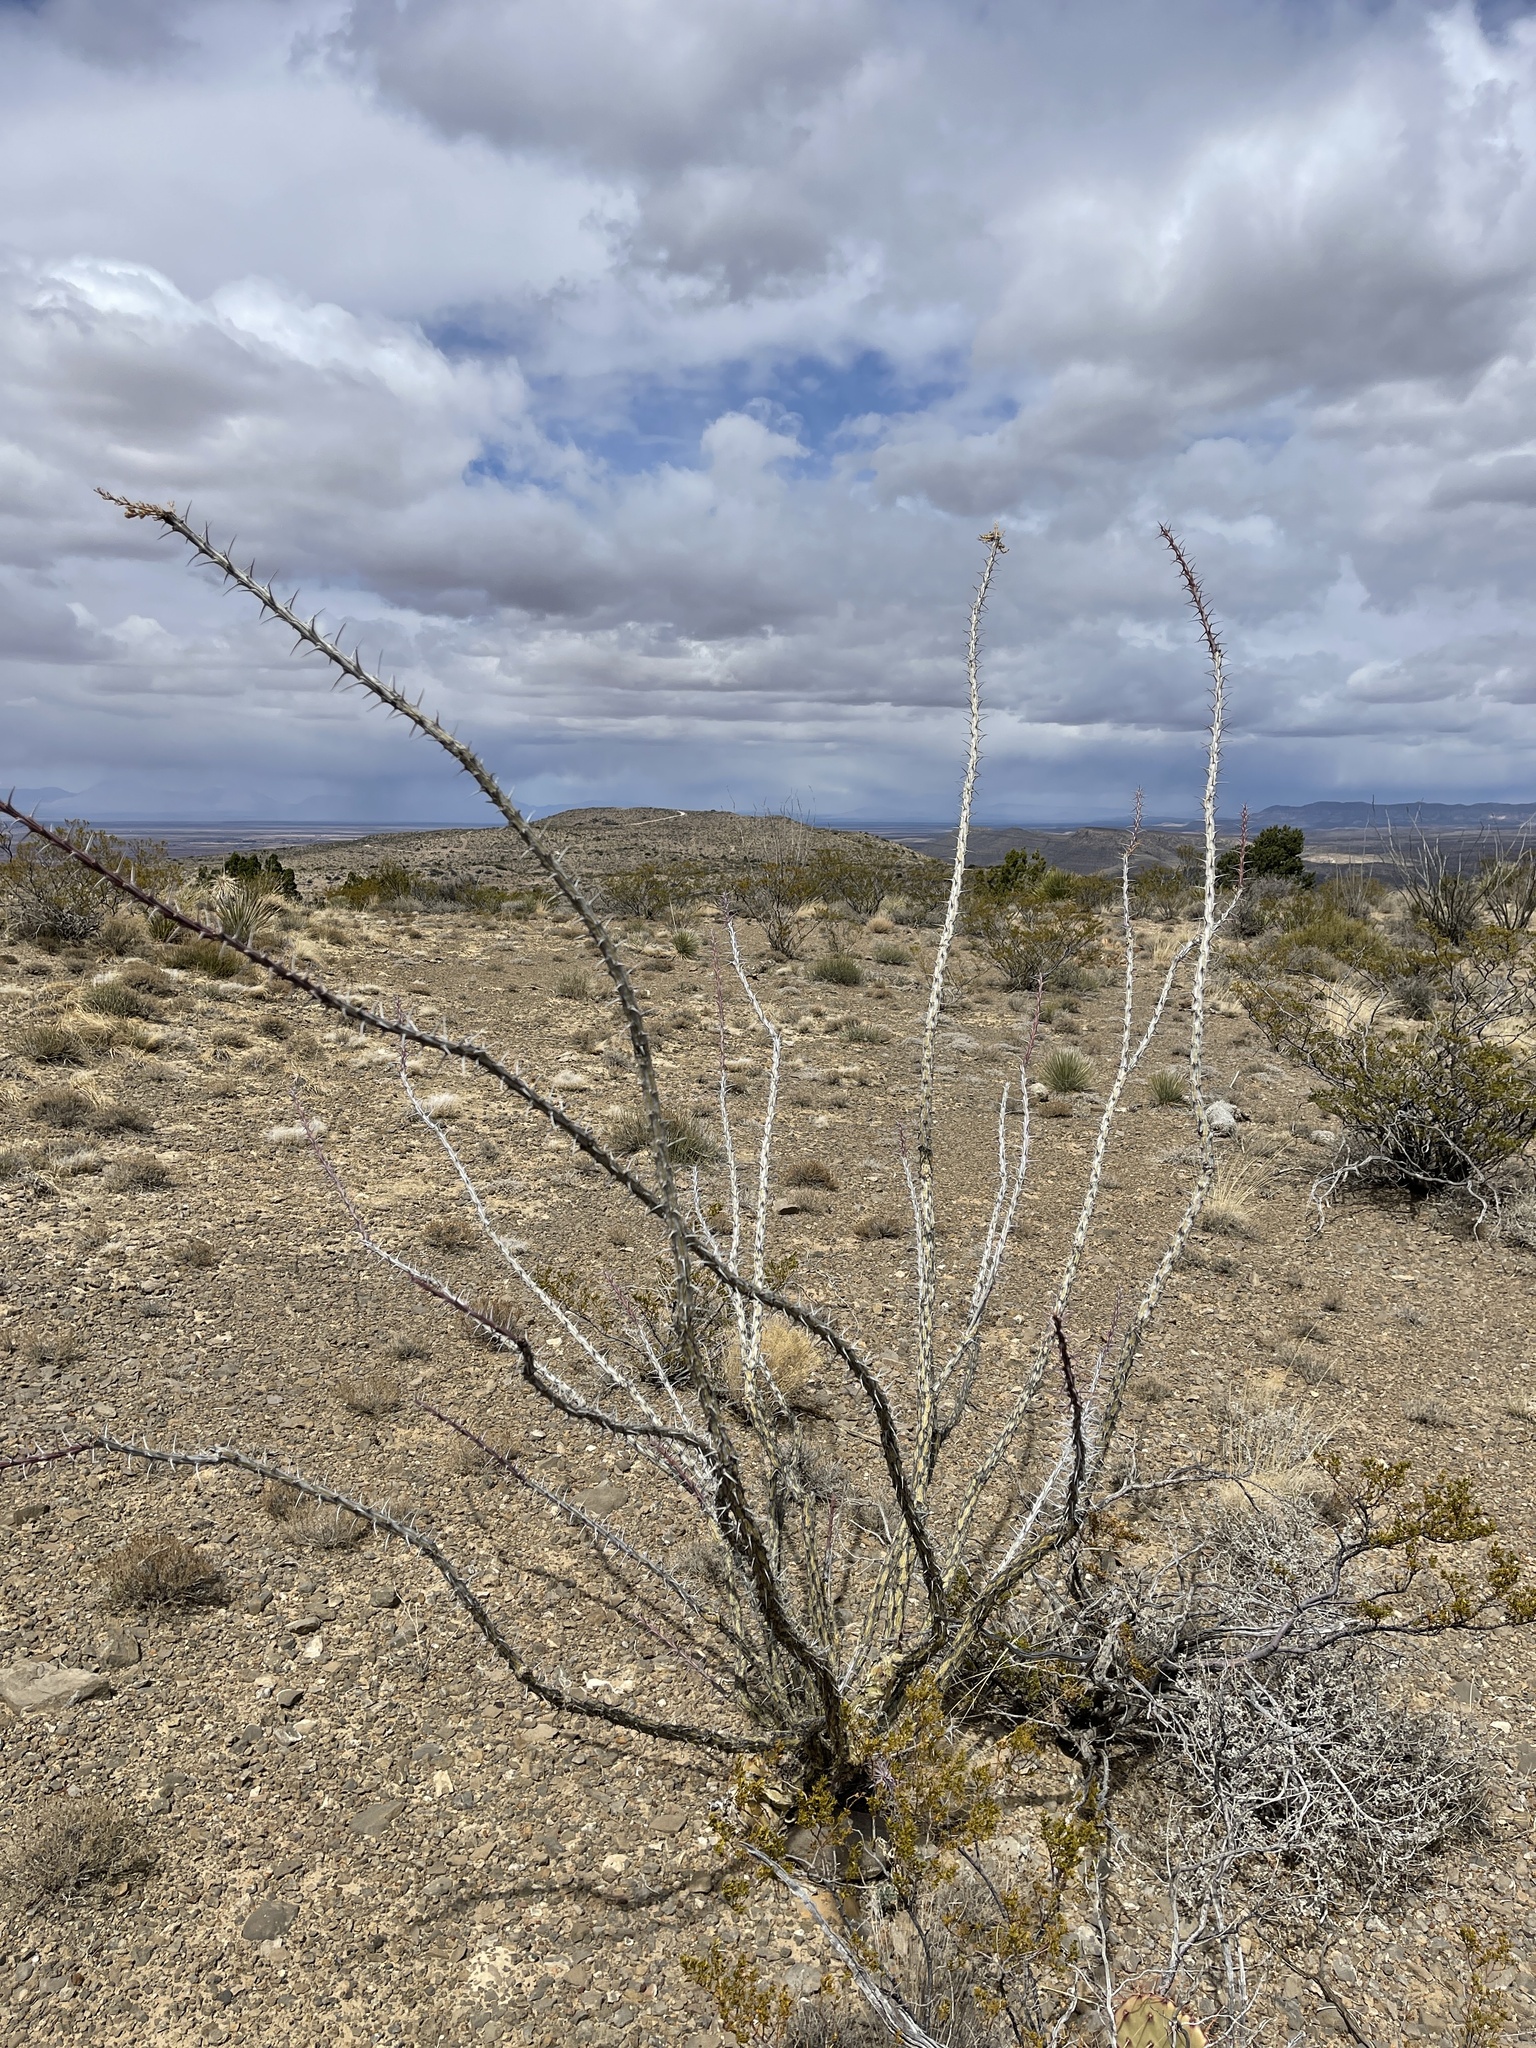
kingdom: Plantae
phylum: Tracheophyta
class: Magnoliopsida
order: Ericales
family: Fouquieriaceae
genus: Fouquieria
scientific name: Fouquieria splendens
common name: Vine-cactus
